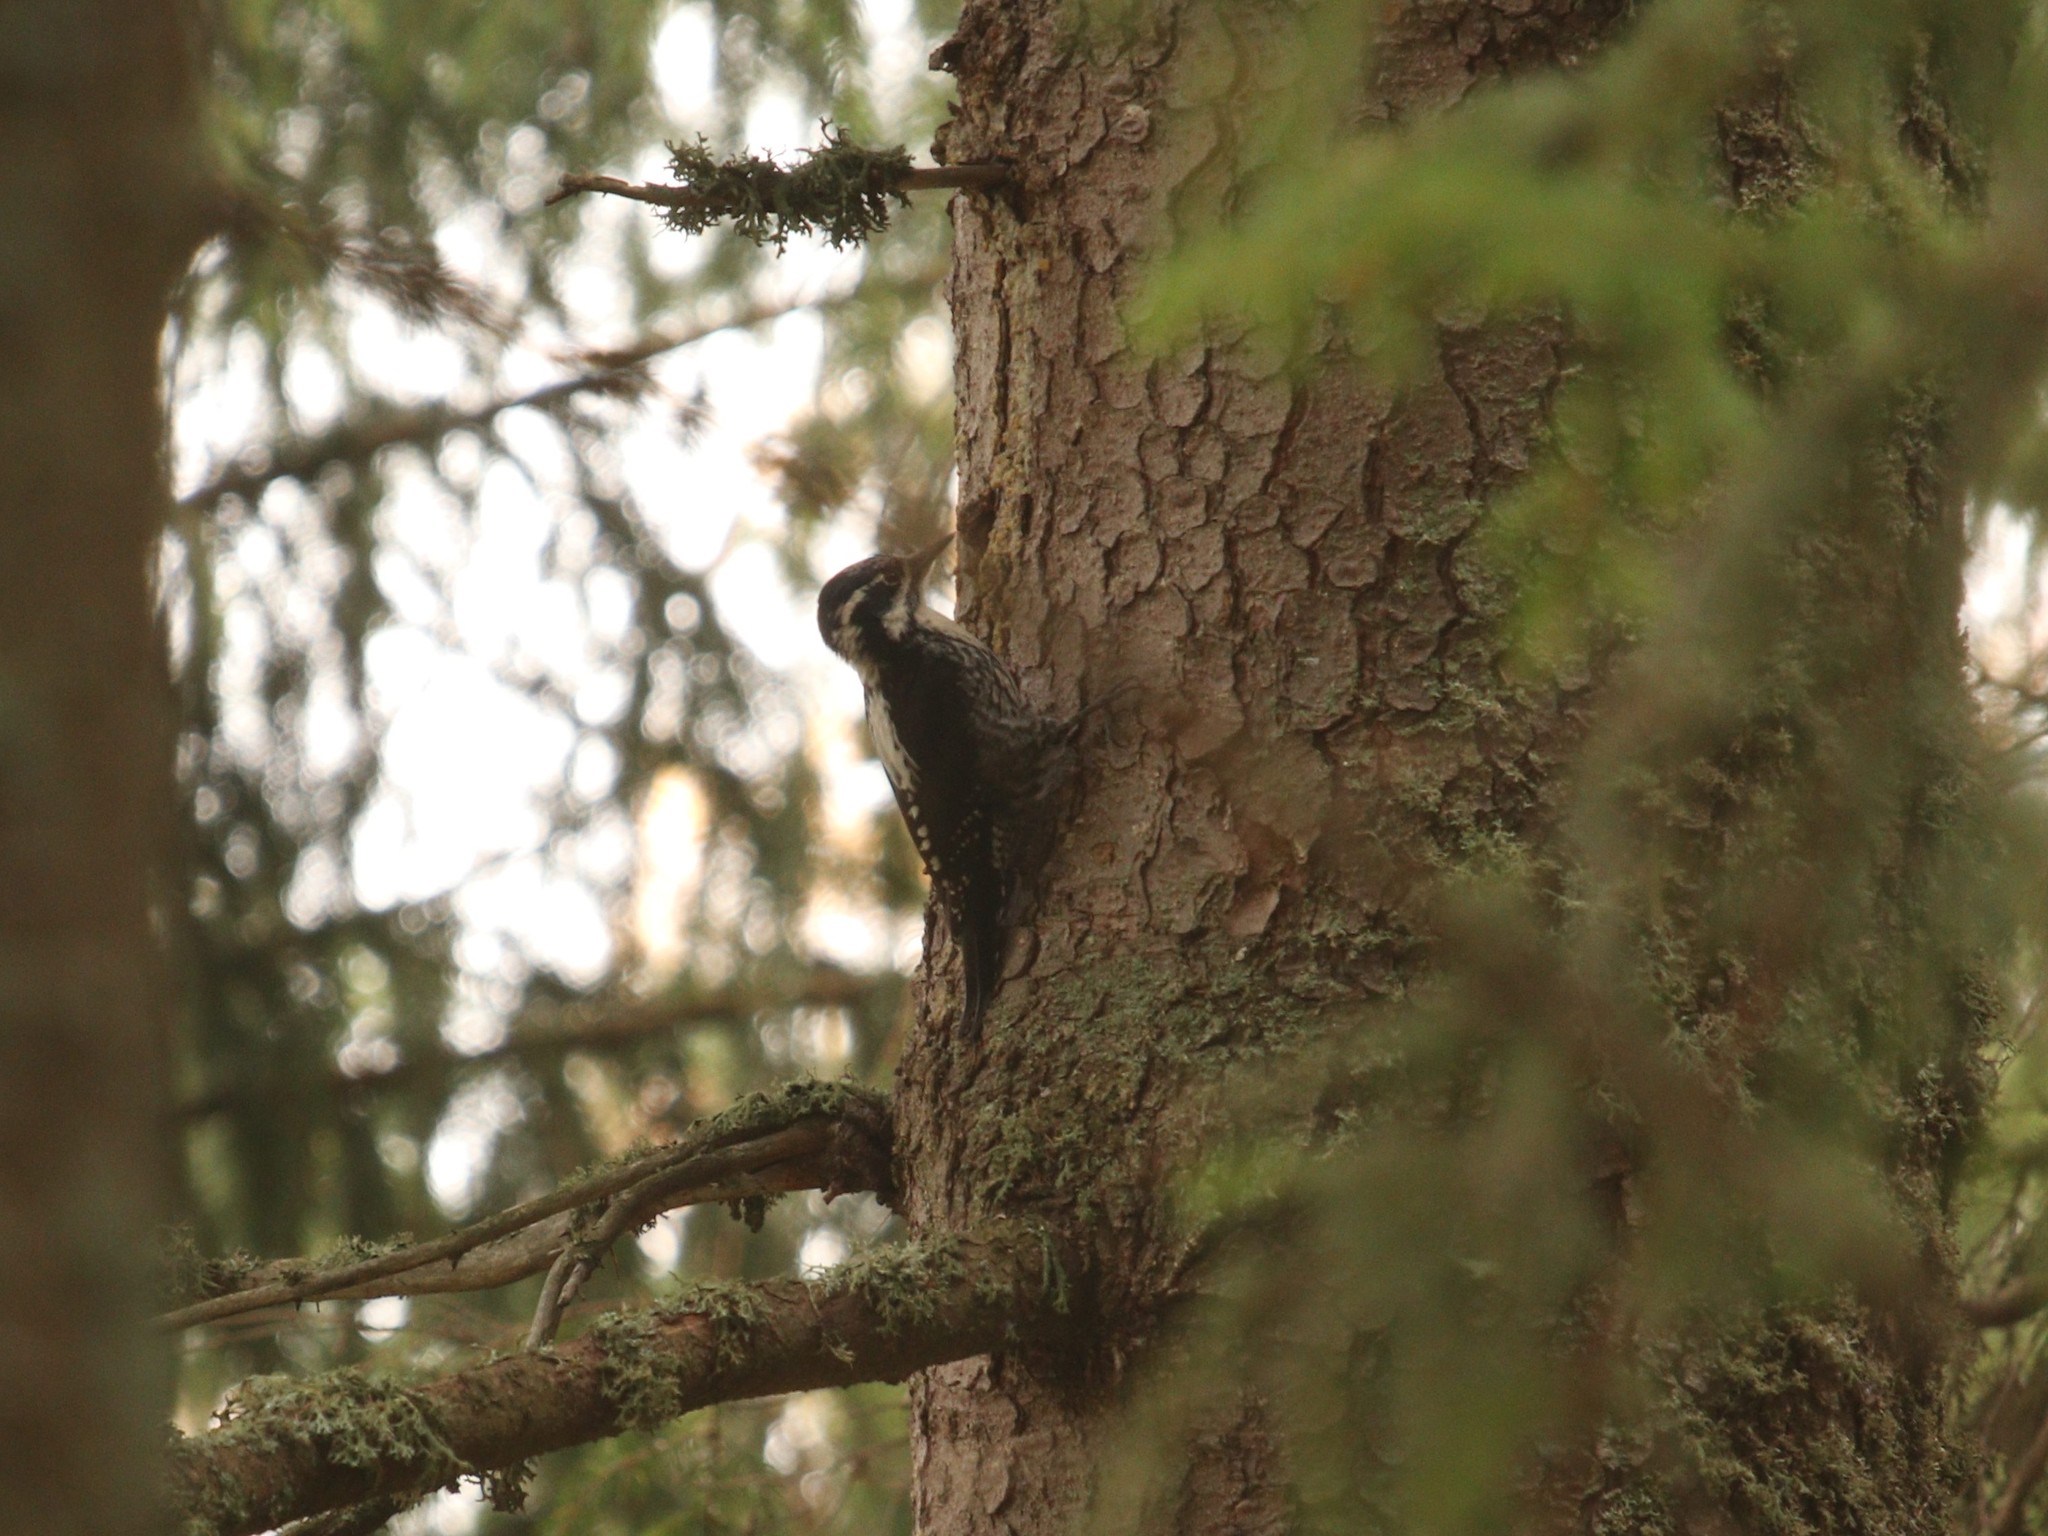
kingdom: Animalia
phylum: Chordata
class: Aves
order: Piciformes
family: Picidae
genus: Picoides
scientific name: Picoides tridactylus
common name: Eurasian three-toed woodpecker
